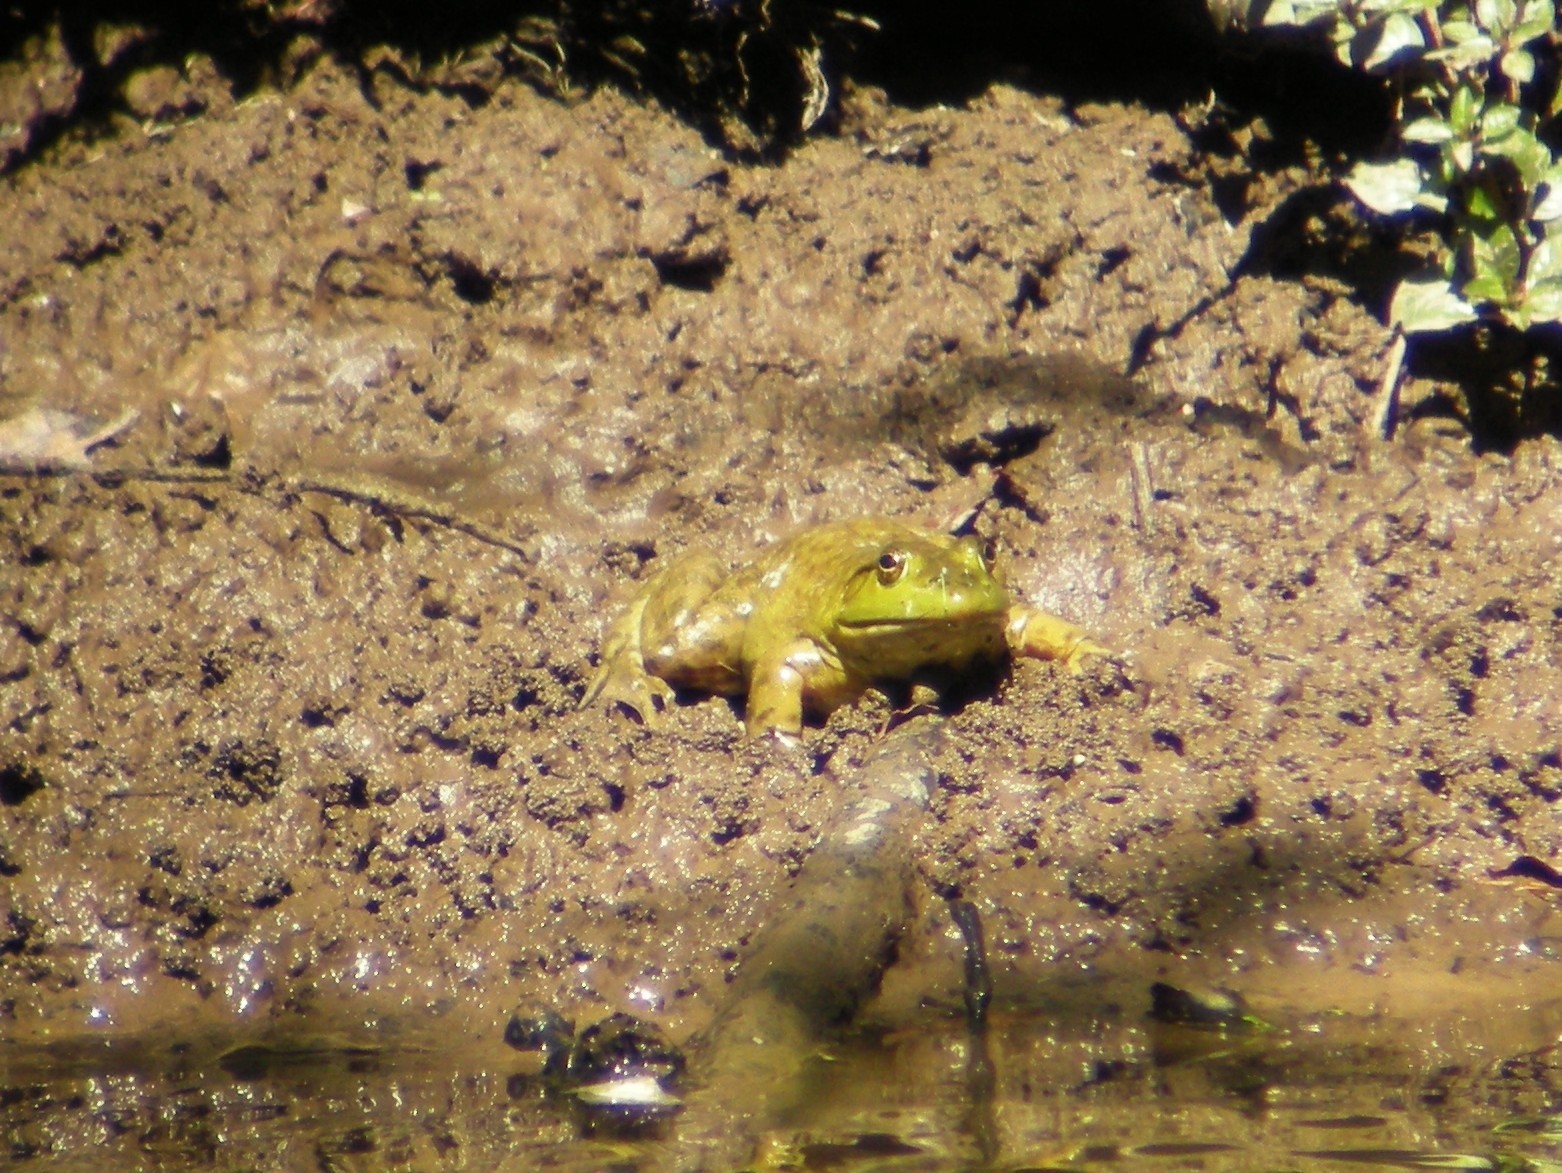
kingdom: Animalia
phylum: Chordata
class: Amphibia
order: Anura
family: Ranidae
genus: Lithobates
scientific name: Lithobates catesbeianus
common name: American bullfrog
